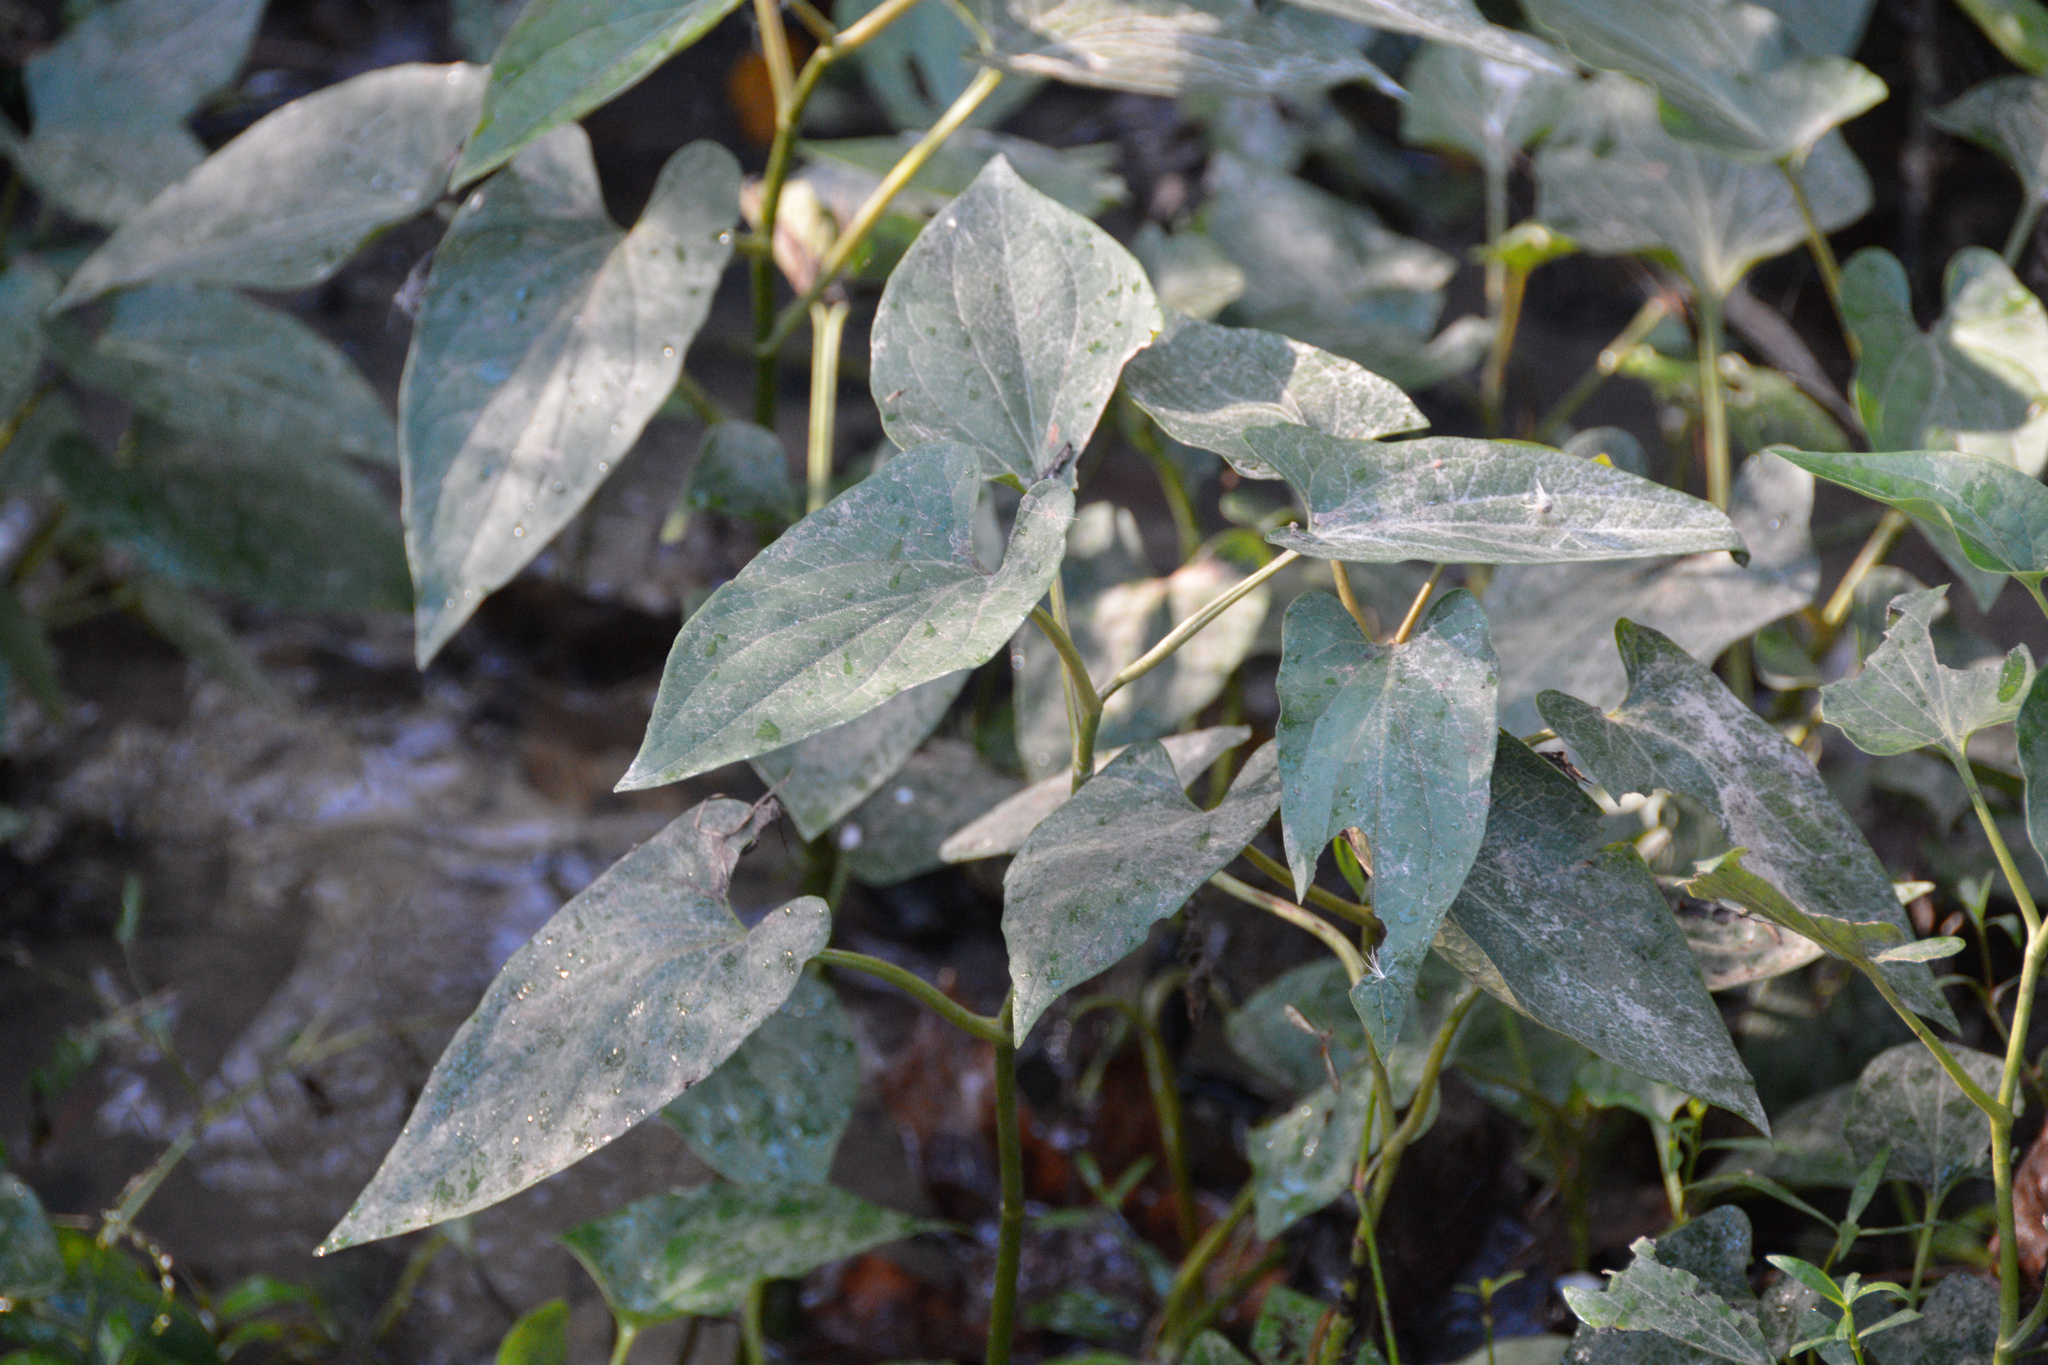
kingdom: Plantae
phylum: Tracheophyta
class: Magnoliopsida
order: Piperales
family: Saururaceae
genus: Saururus
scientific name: Saururus cernuus
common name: Lizard's-tail
